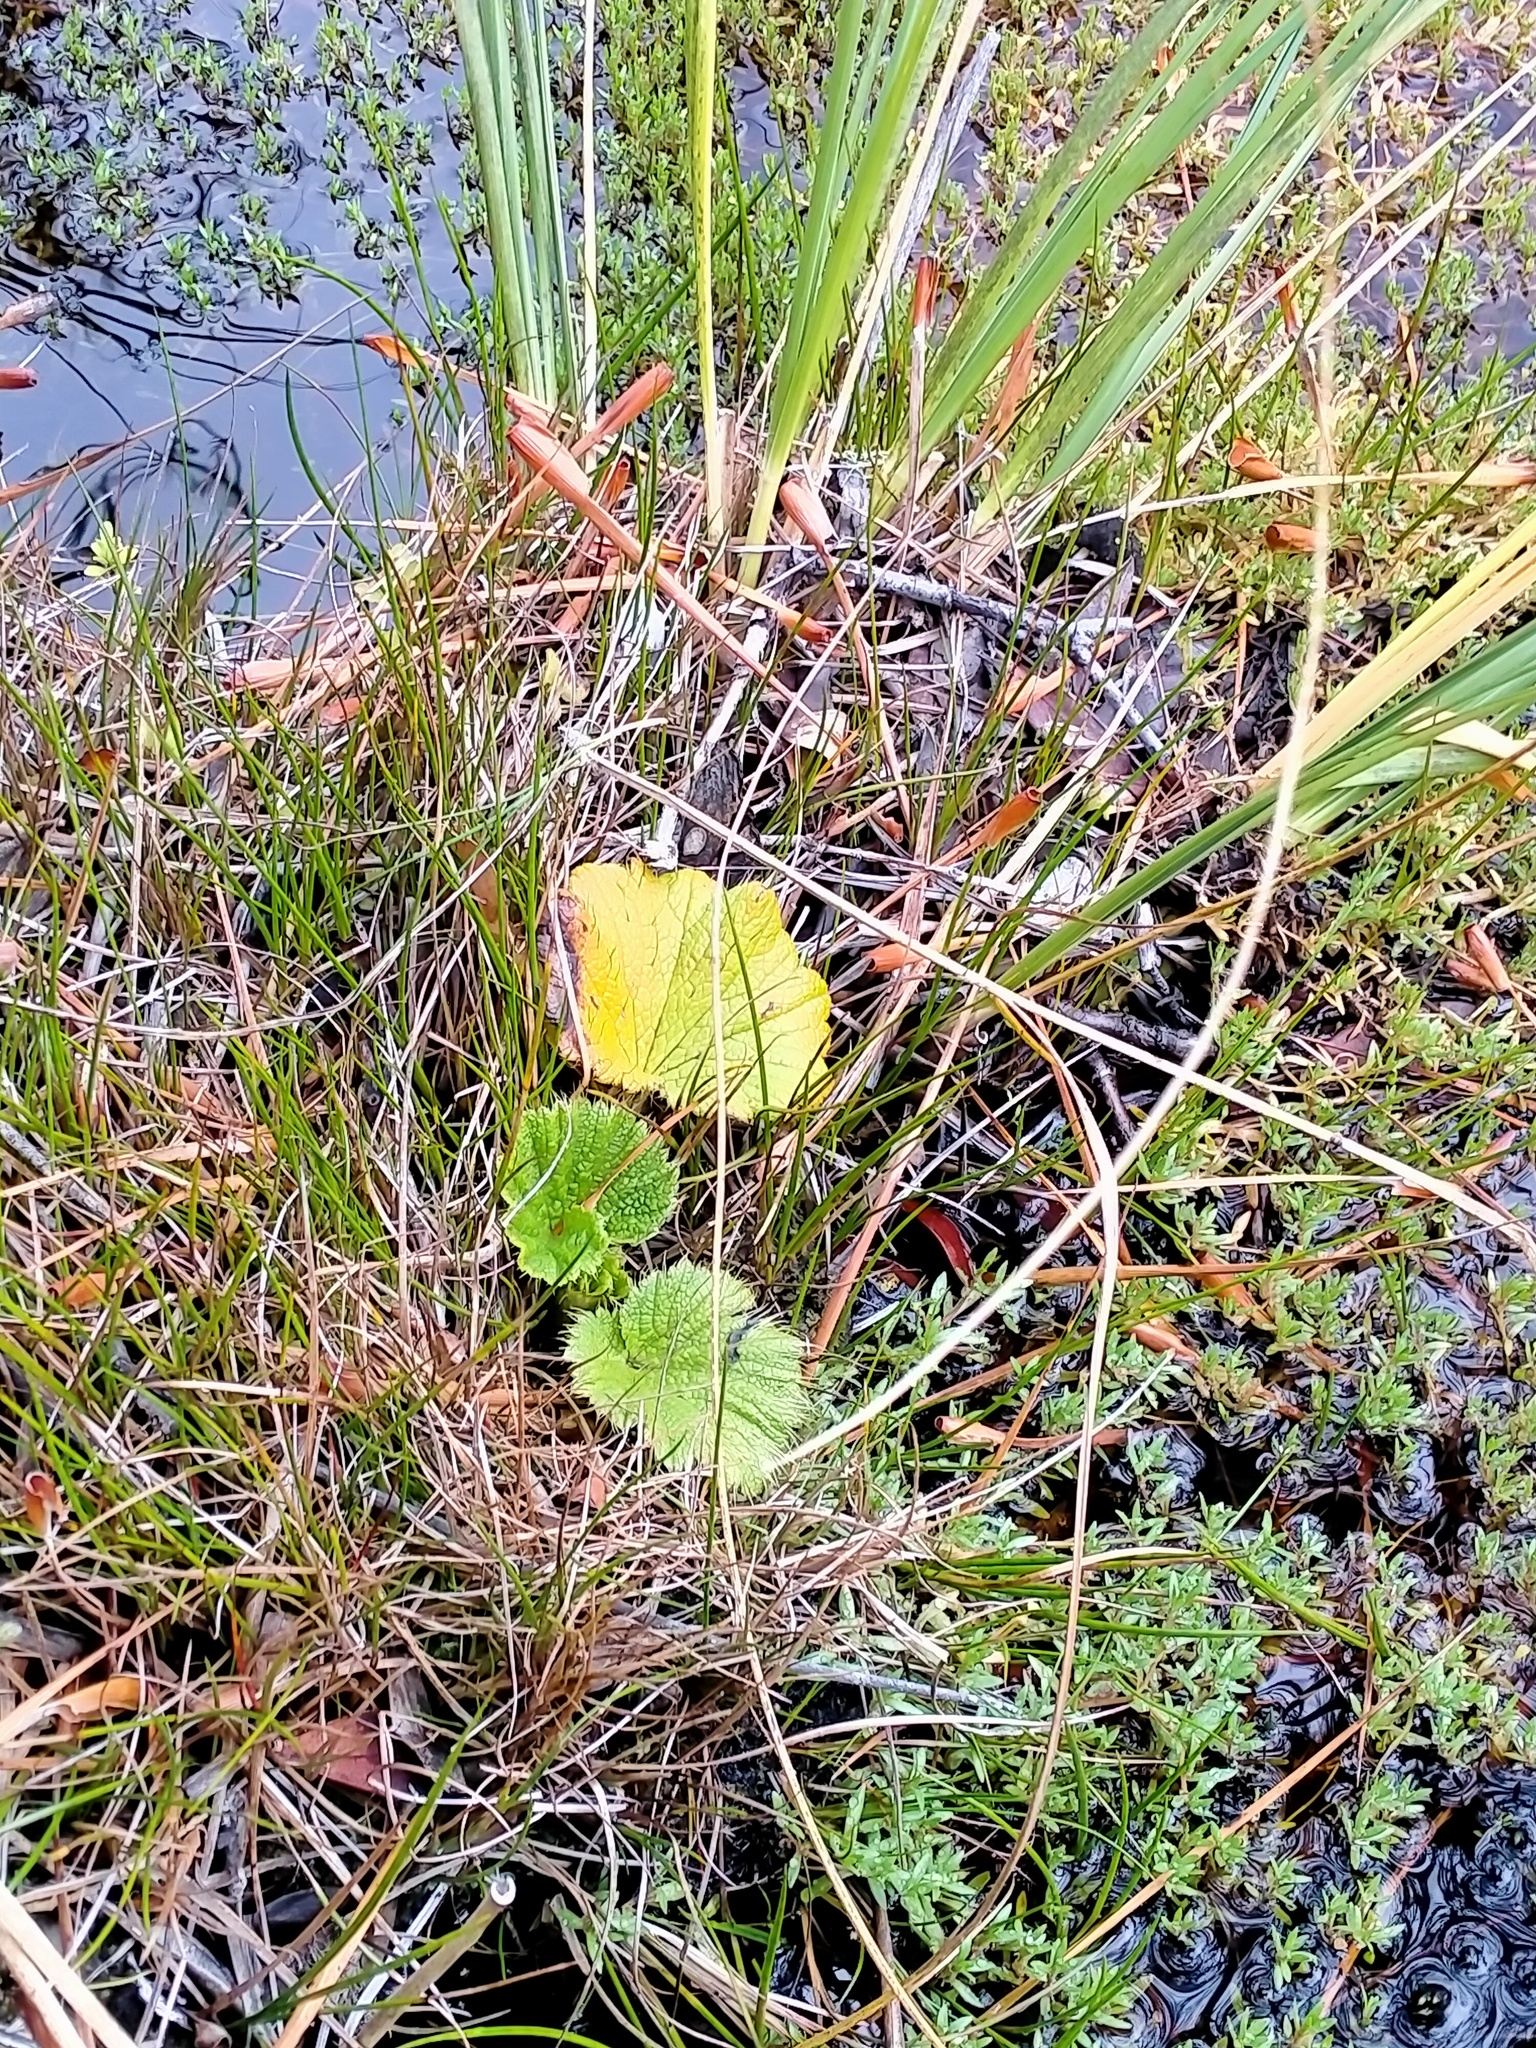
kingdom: Plantae
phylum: Tracheophyta
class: Magnoliopsida
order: Apiales
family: Apiaceae
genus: Azorella
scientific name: Azorella polaris
